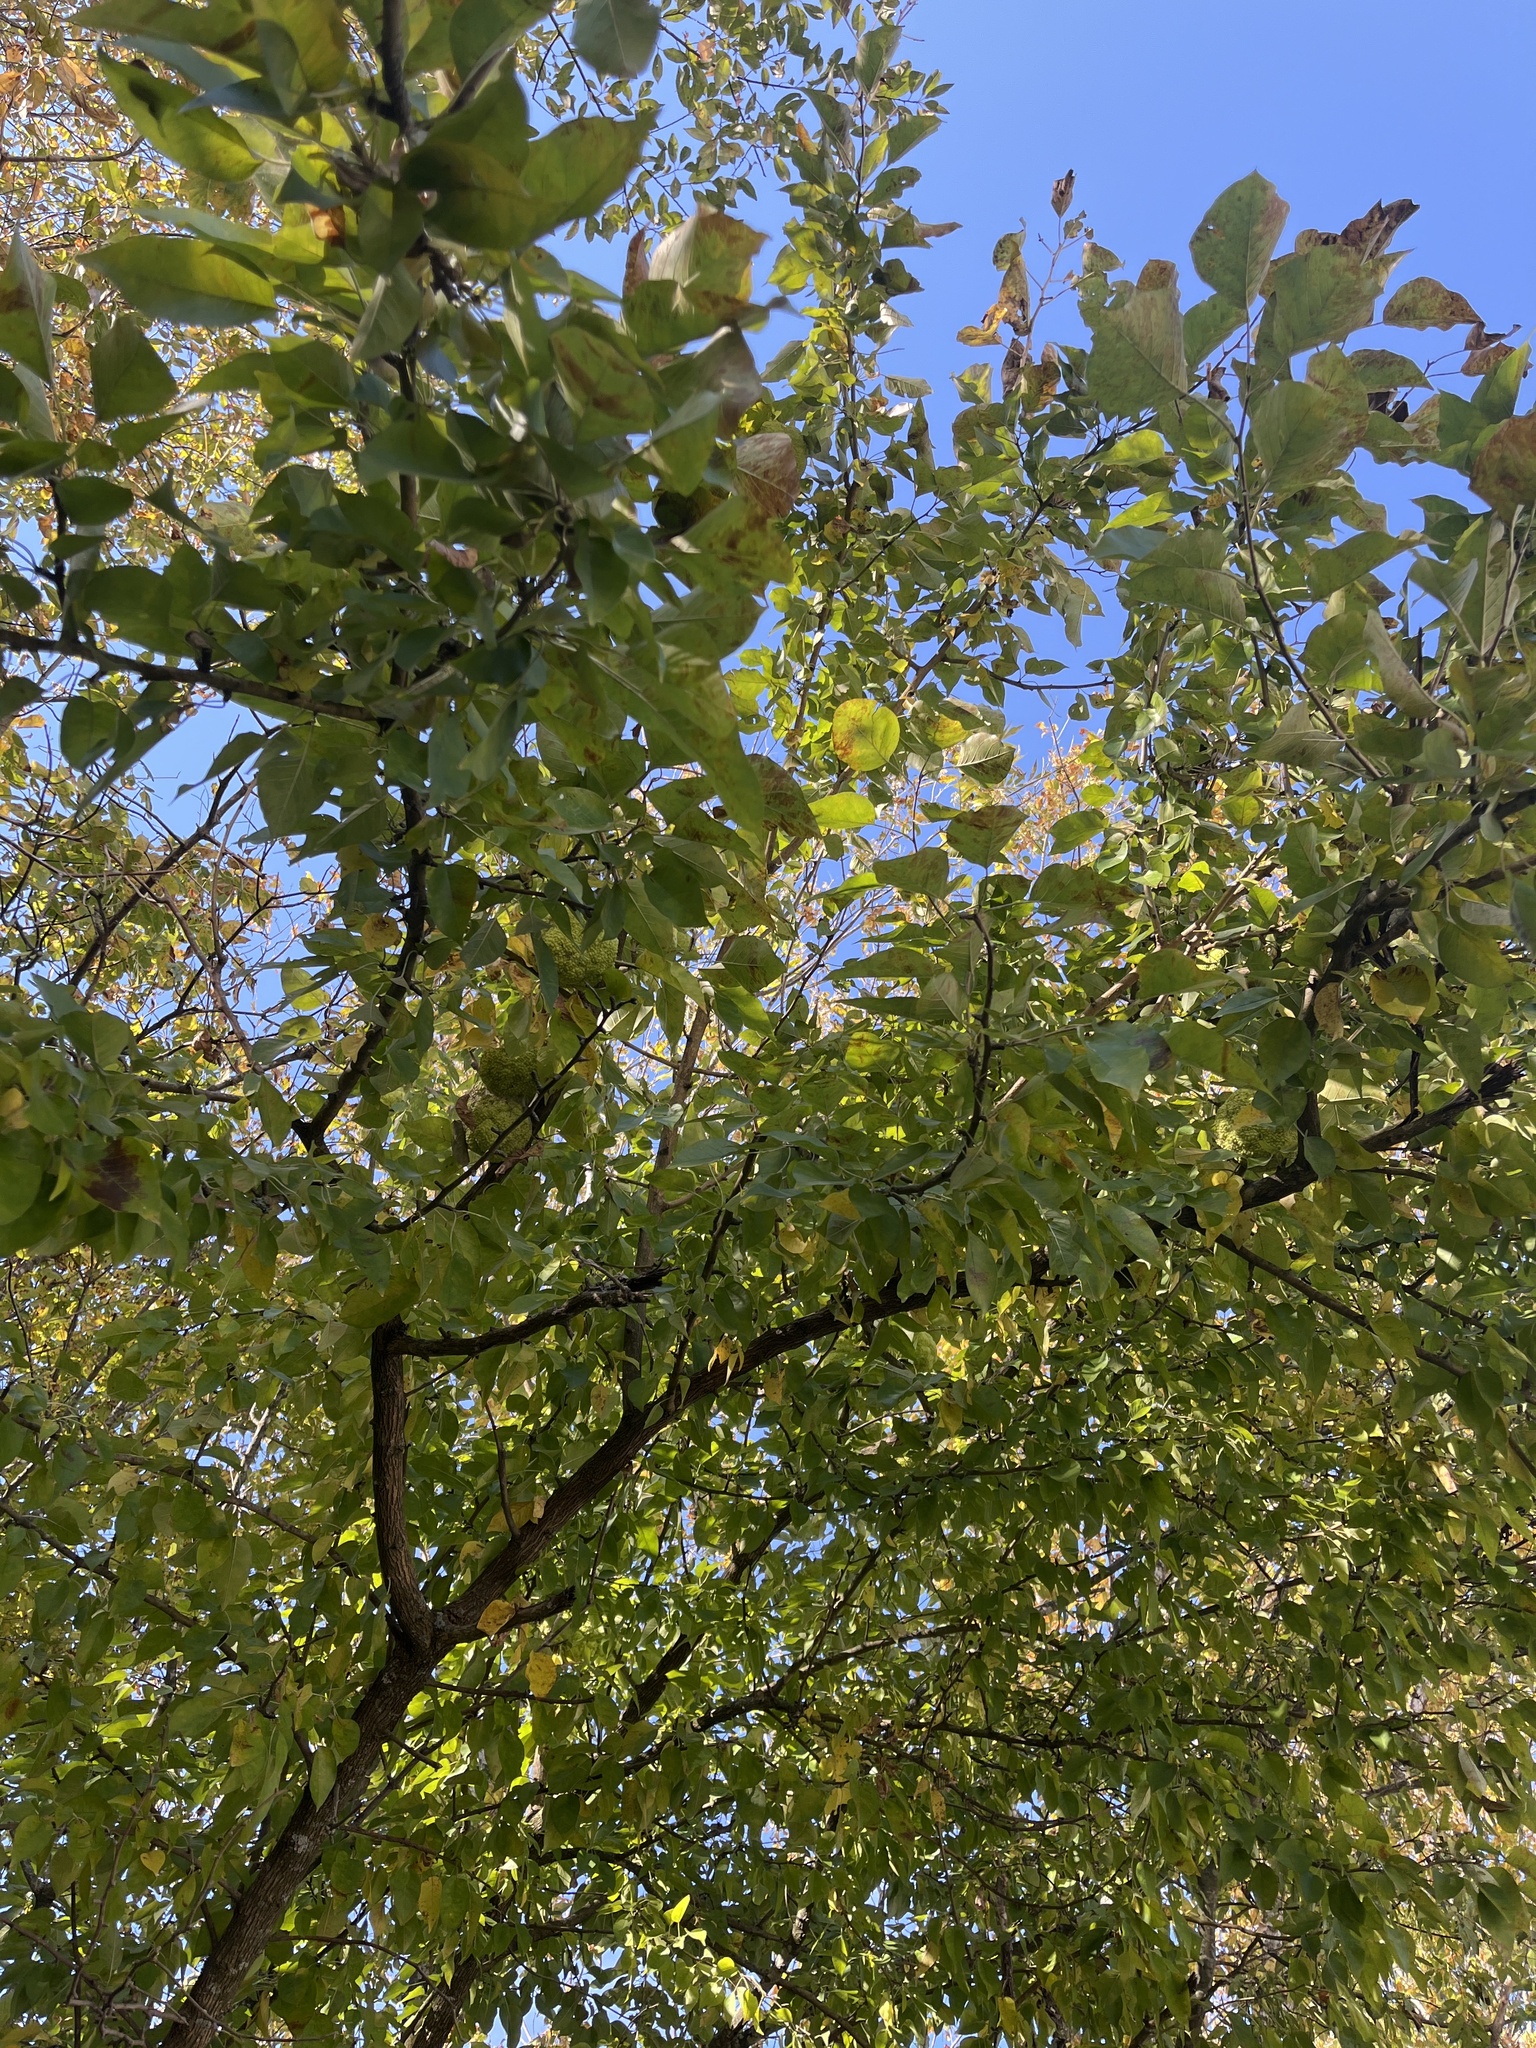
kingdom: Plantae
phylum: Tracheophyta
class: Magnoliopsida
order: Rosales
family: Moraceae
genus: Maclura
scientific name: Maclura pomifera
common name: Osage-orange
